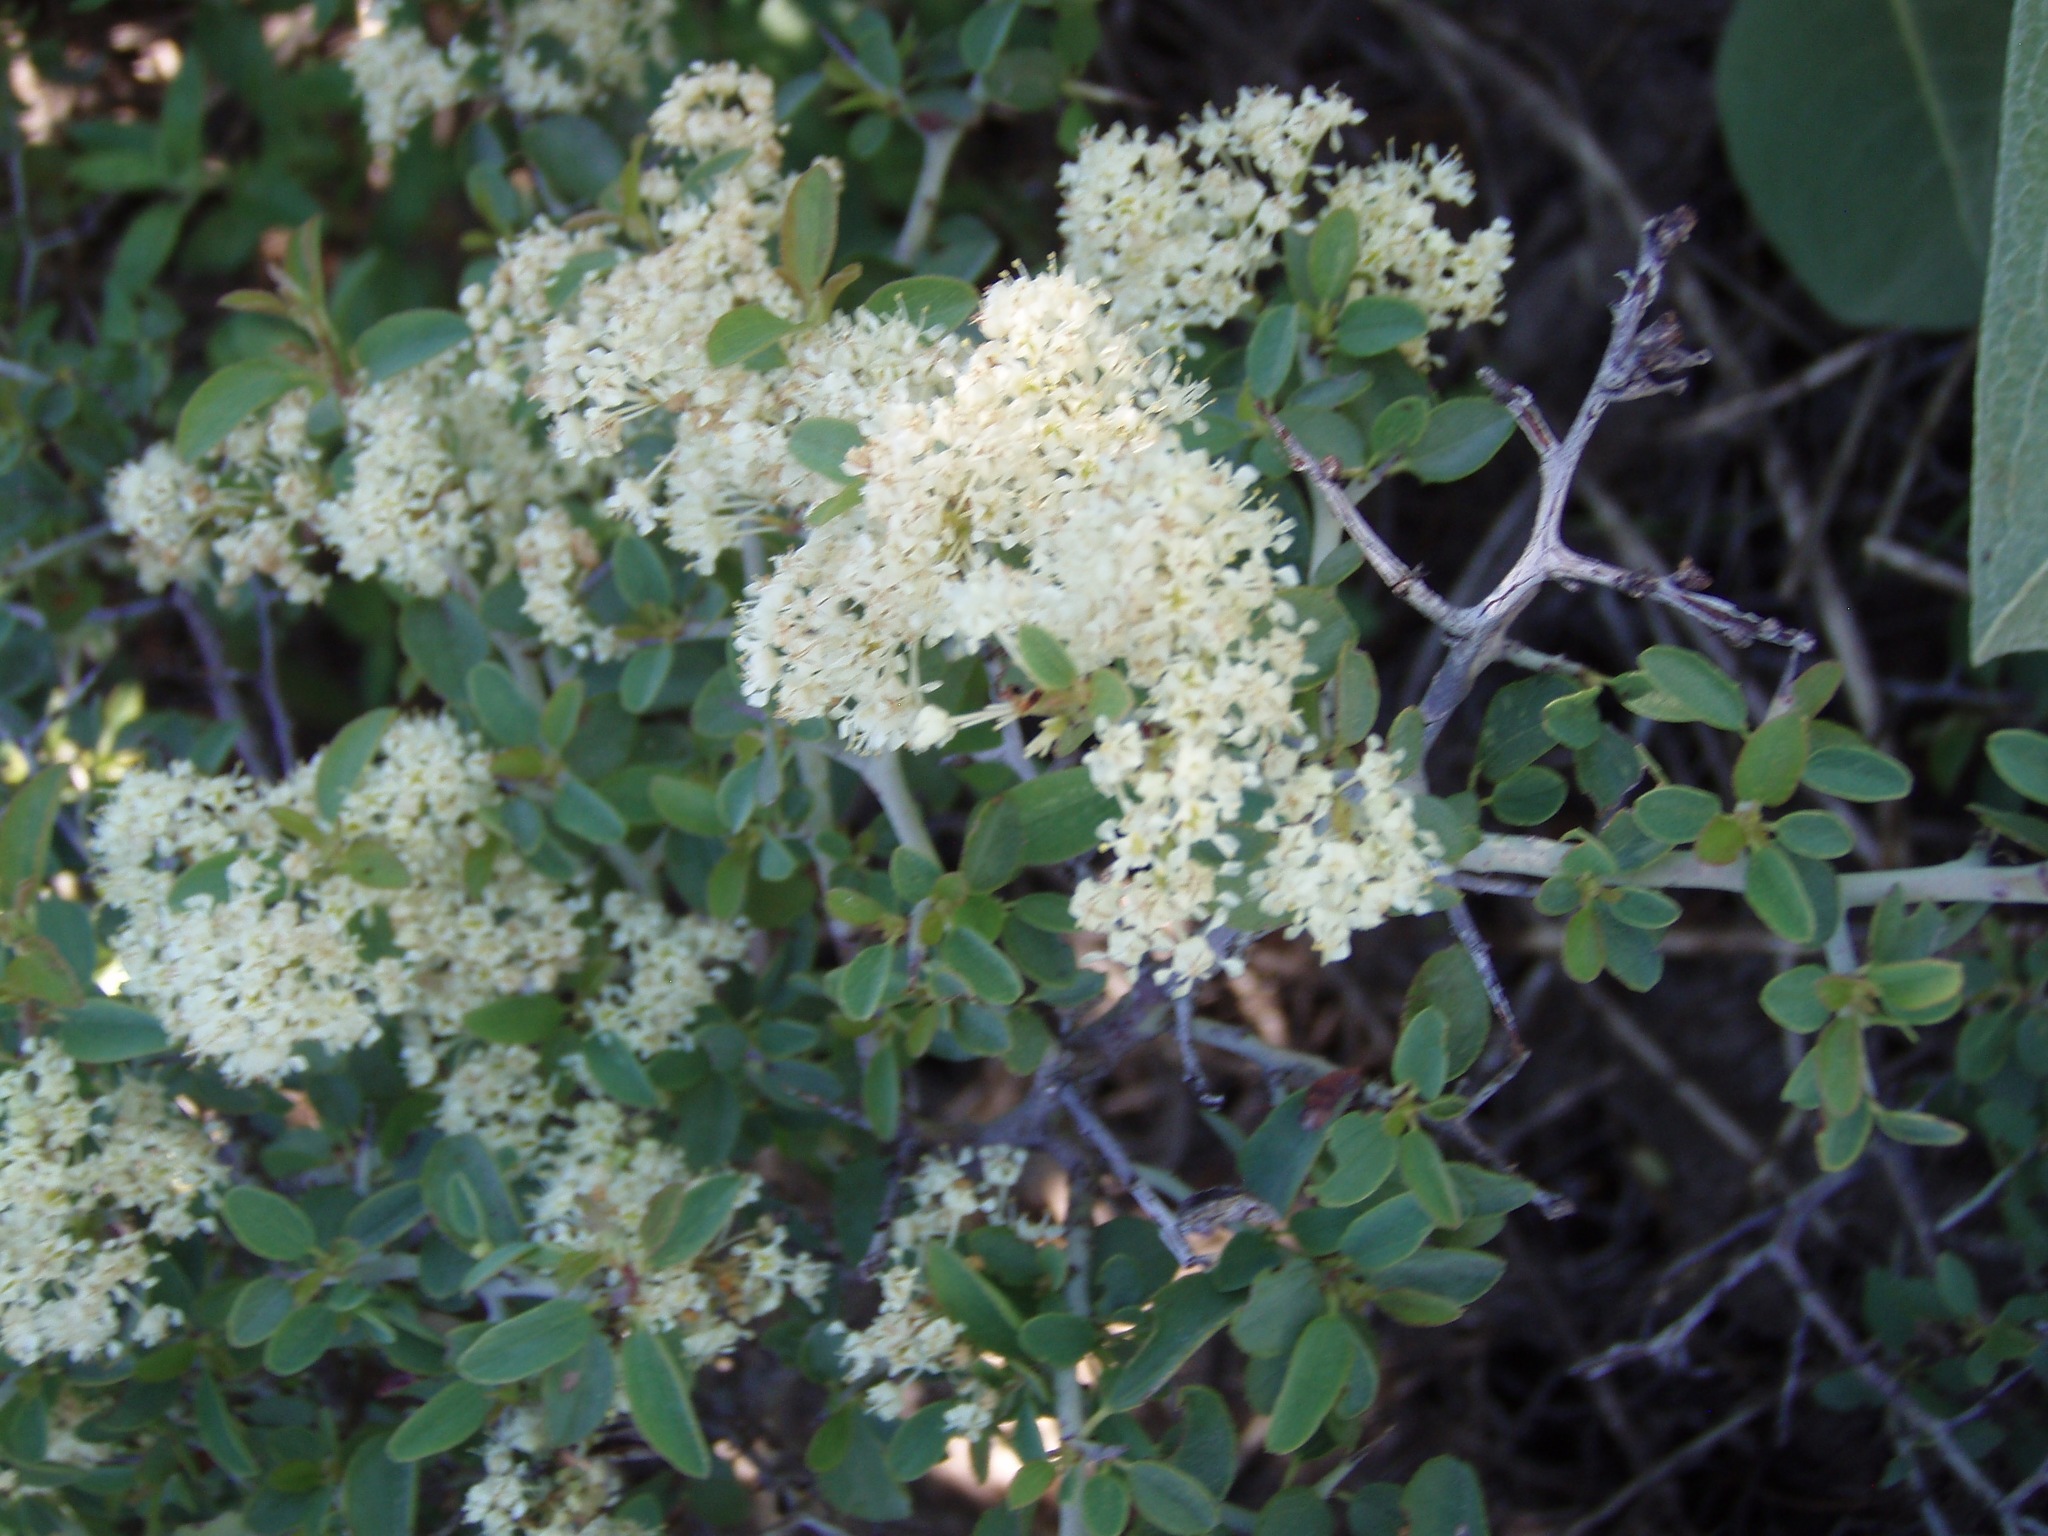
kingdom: Plantae
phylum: Tracheophyta
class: Magnoliopsida
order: Rosales
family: Rhamnaceae
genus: Ceanothus
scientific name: Ceanothus cordulatus
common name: Mountain whitethorn
